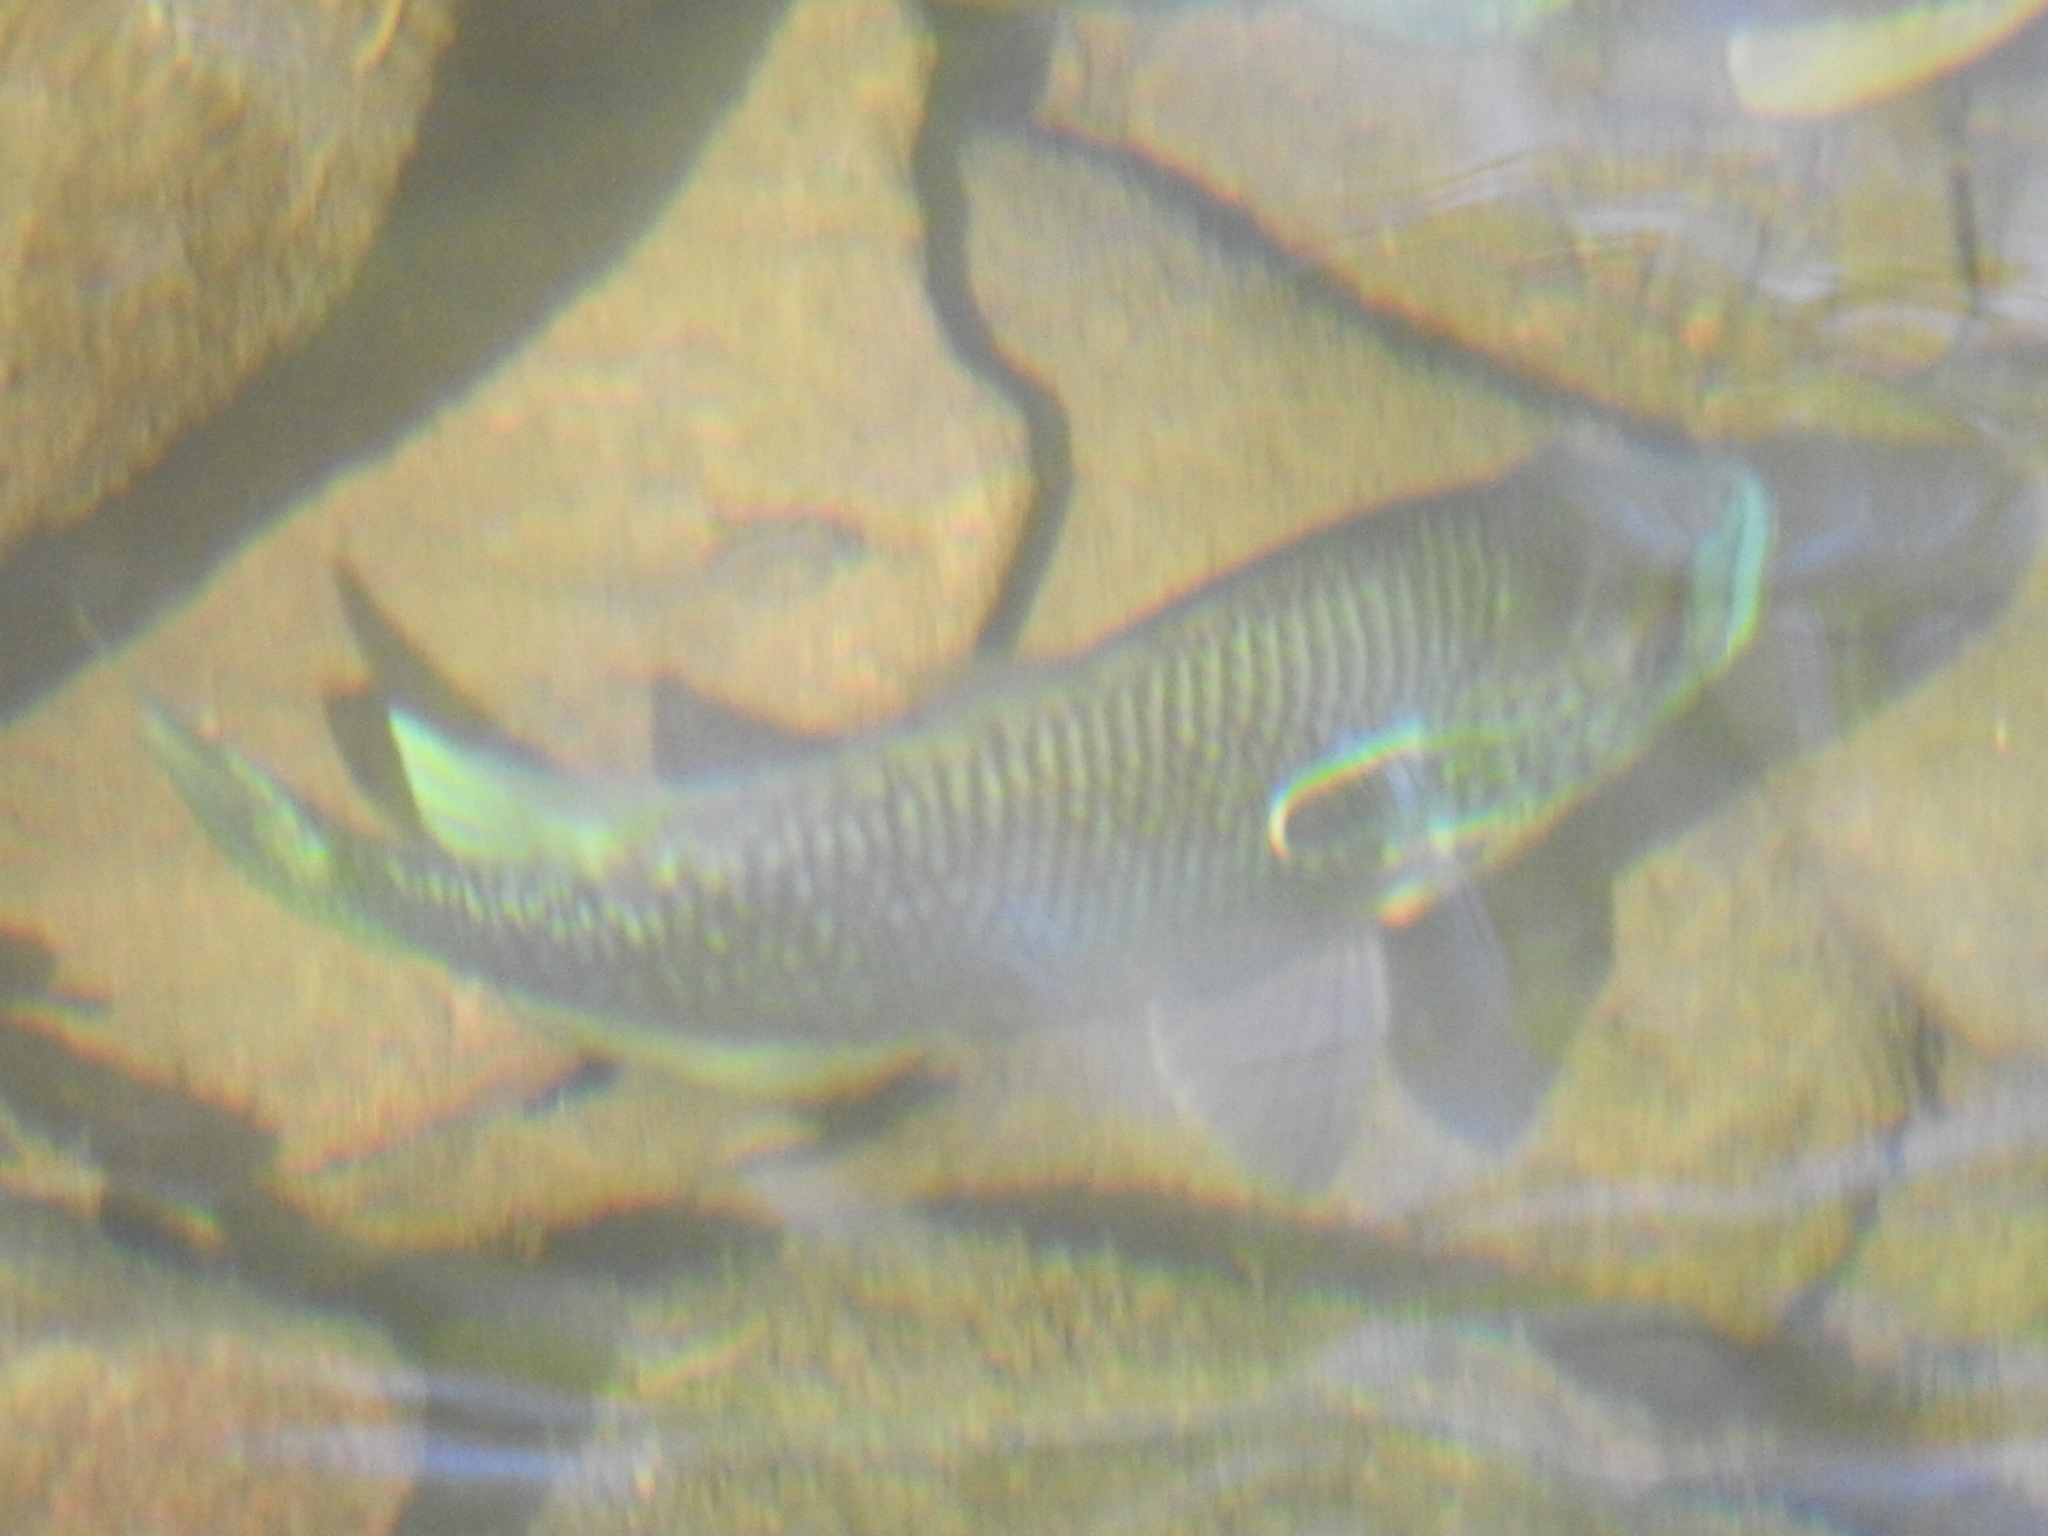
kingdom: Animalia
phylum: Chordata
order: Perciformes
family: Centrarchidae
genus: Lepomis
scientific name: Lepomis cyanellus
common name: Green sunfish
